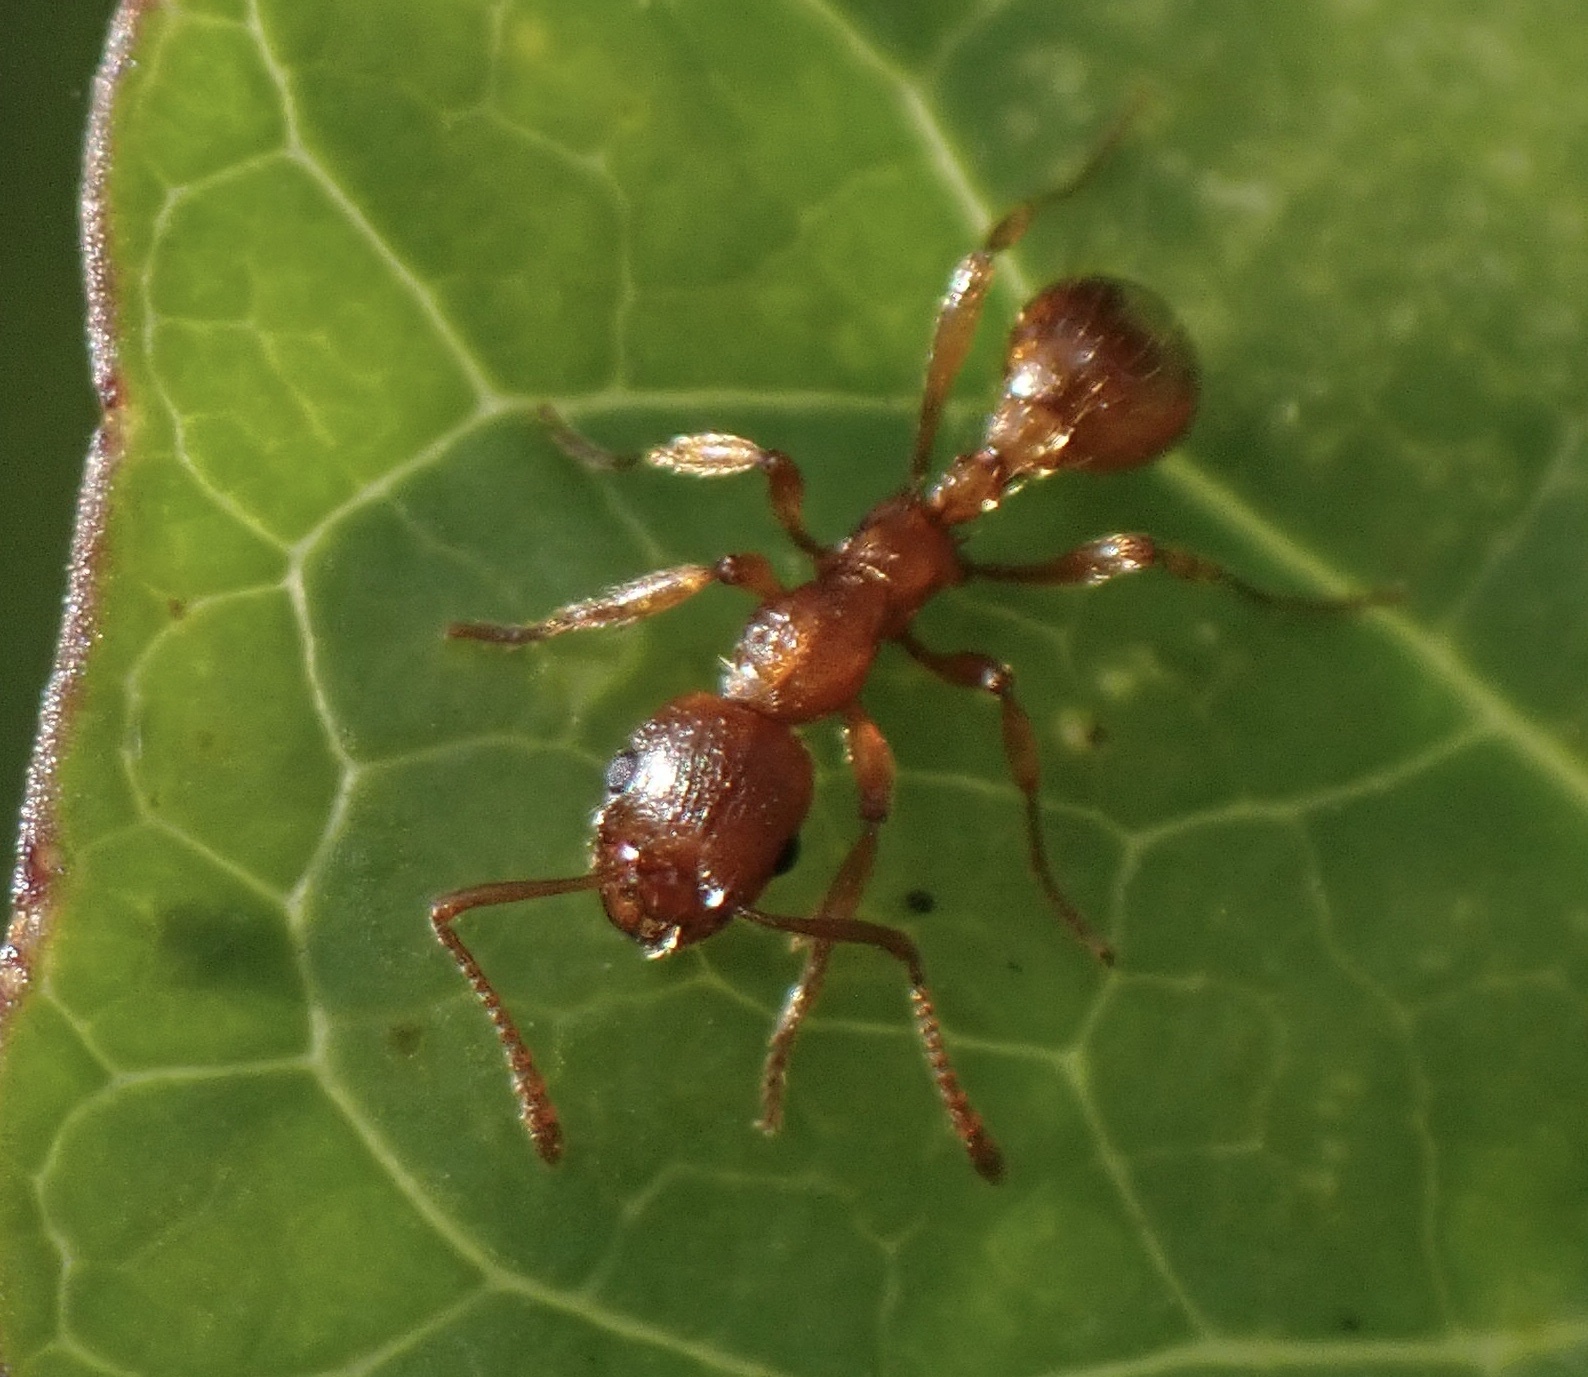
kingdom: Animalia
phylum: Arthropoda
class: Insecta
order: Hymenoptera
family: Formicidae
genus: Myrmica
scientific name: Myrmica rubra
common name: European fire ant
